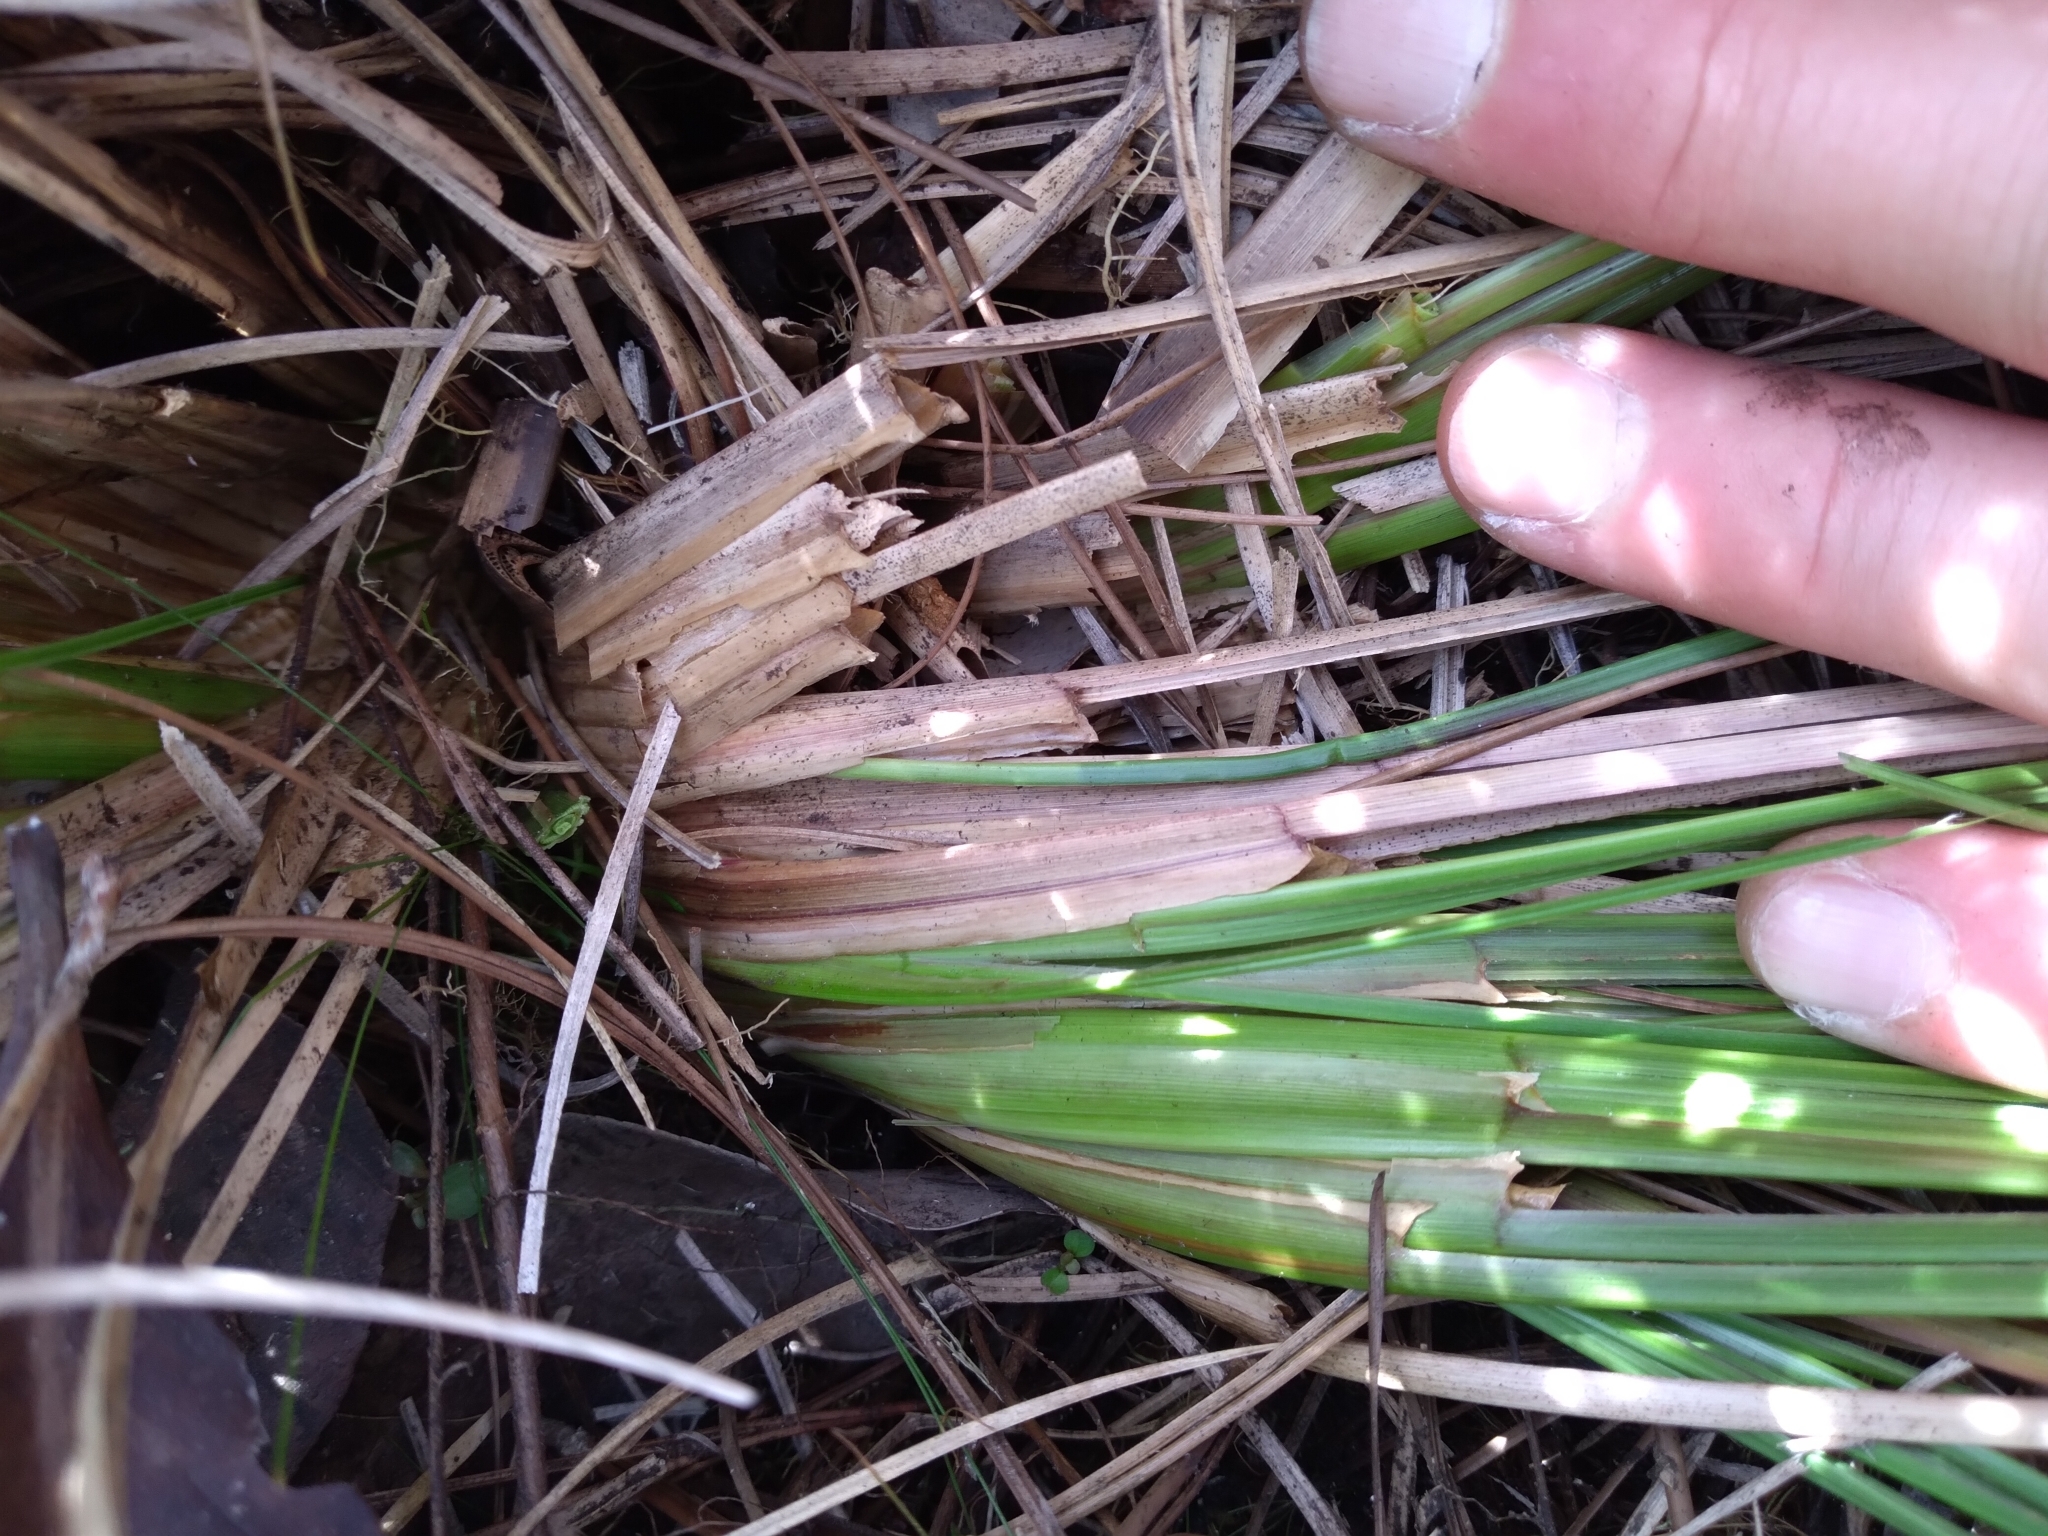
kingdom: Plantae
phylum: Tracheophyta
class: Liliopsida
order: Poales
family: Poaceae
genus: Coleataenia
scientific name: Coleataenia abscissa
